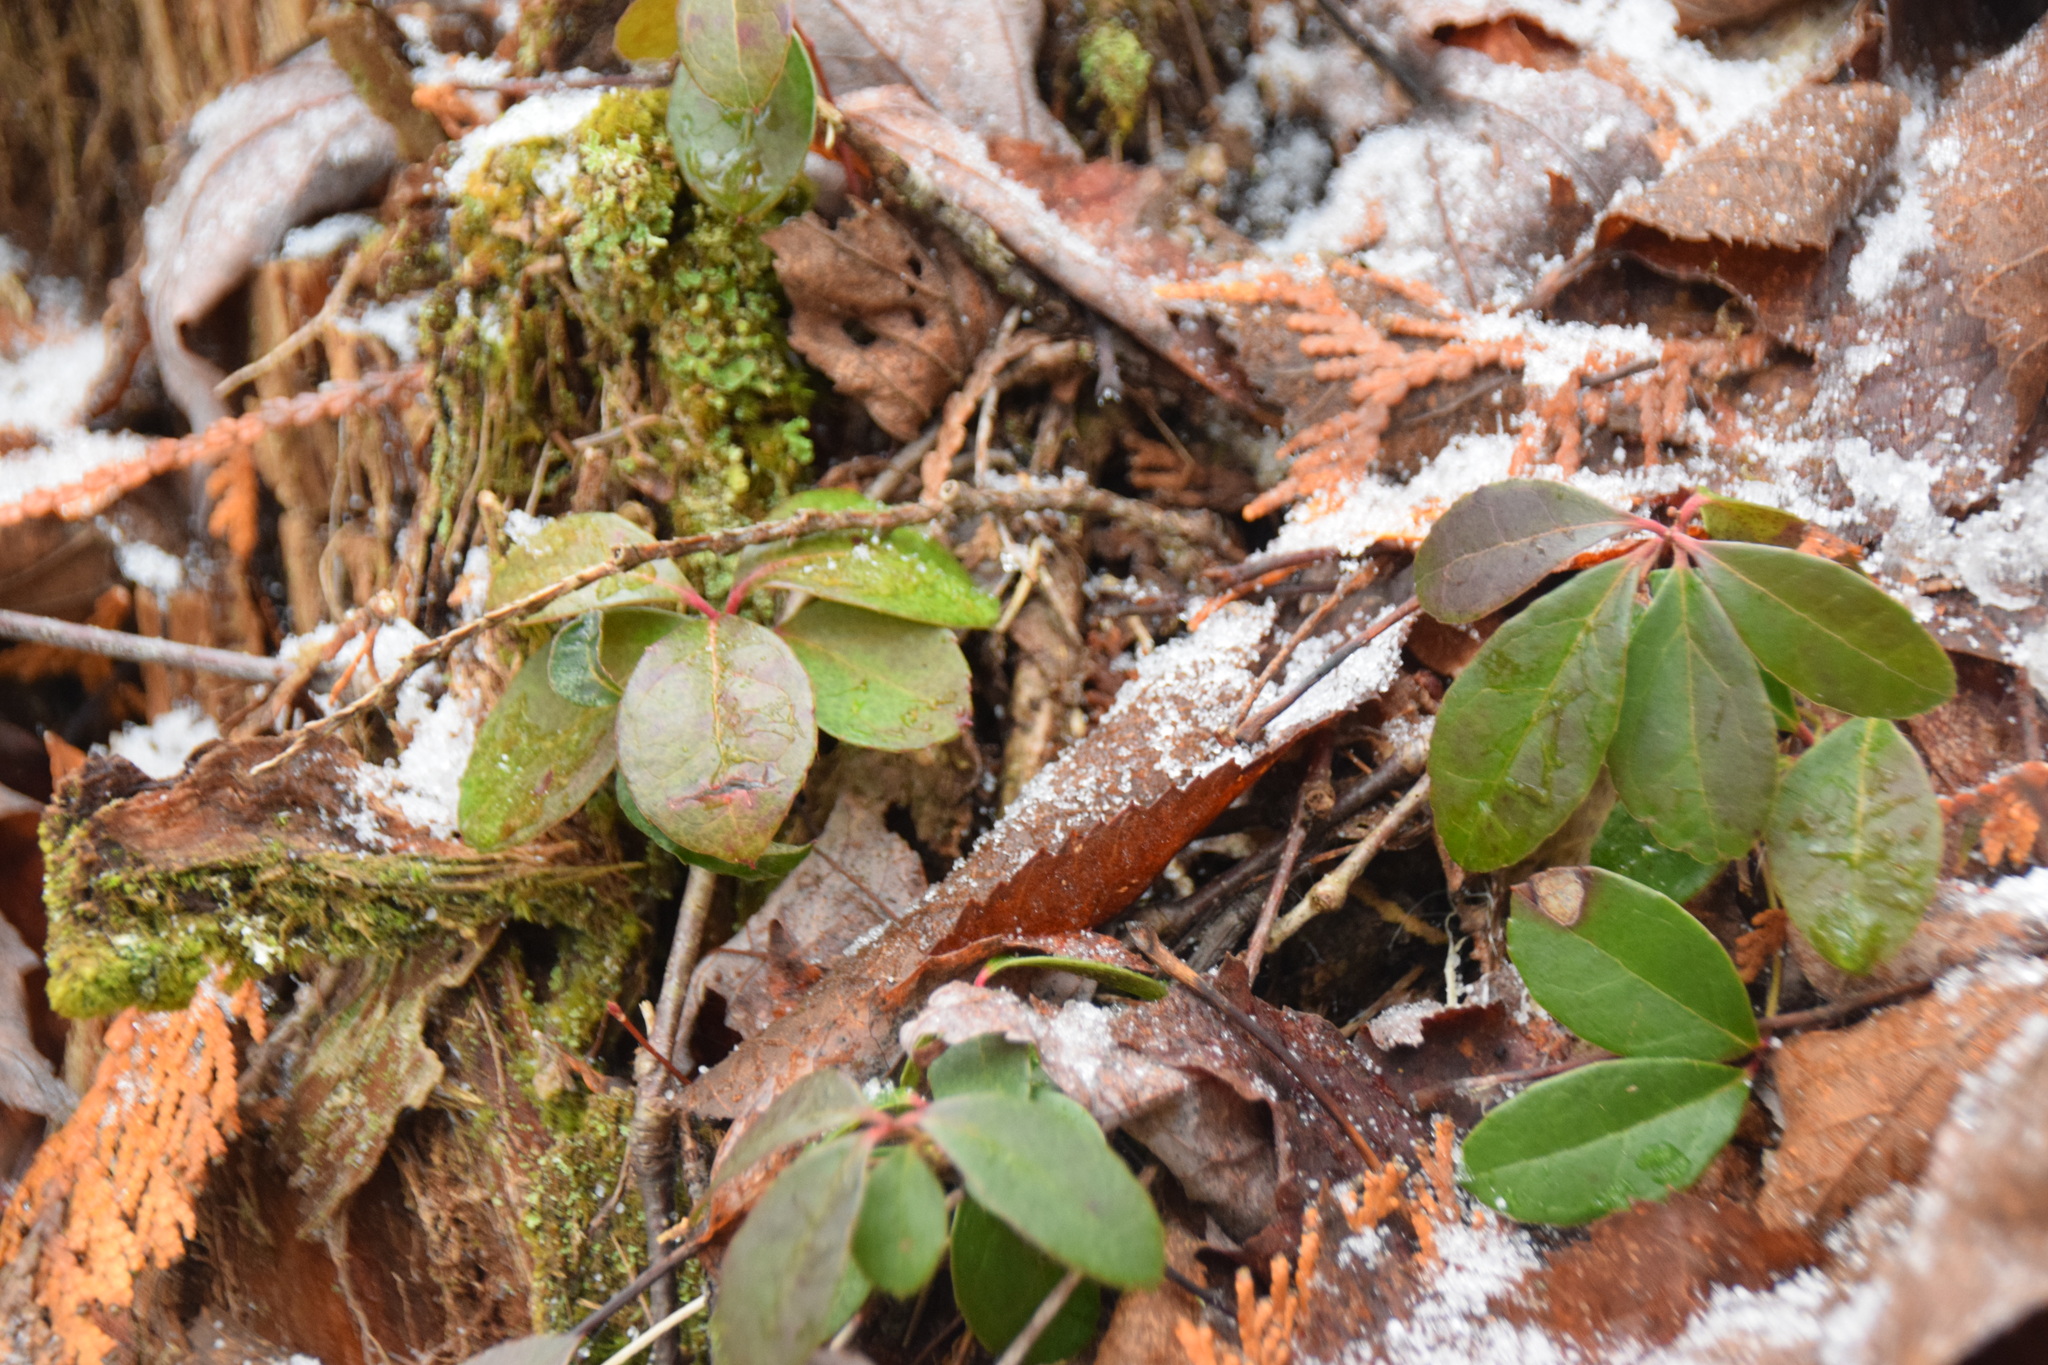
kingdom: Plantae
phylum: Tracheophyta
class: Magnoliopsida
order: Ericales
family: Ericaceae
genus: Gaultheria
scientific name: Gaultheria procumbens
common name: Checkerberry
